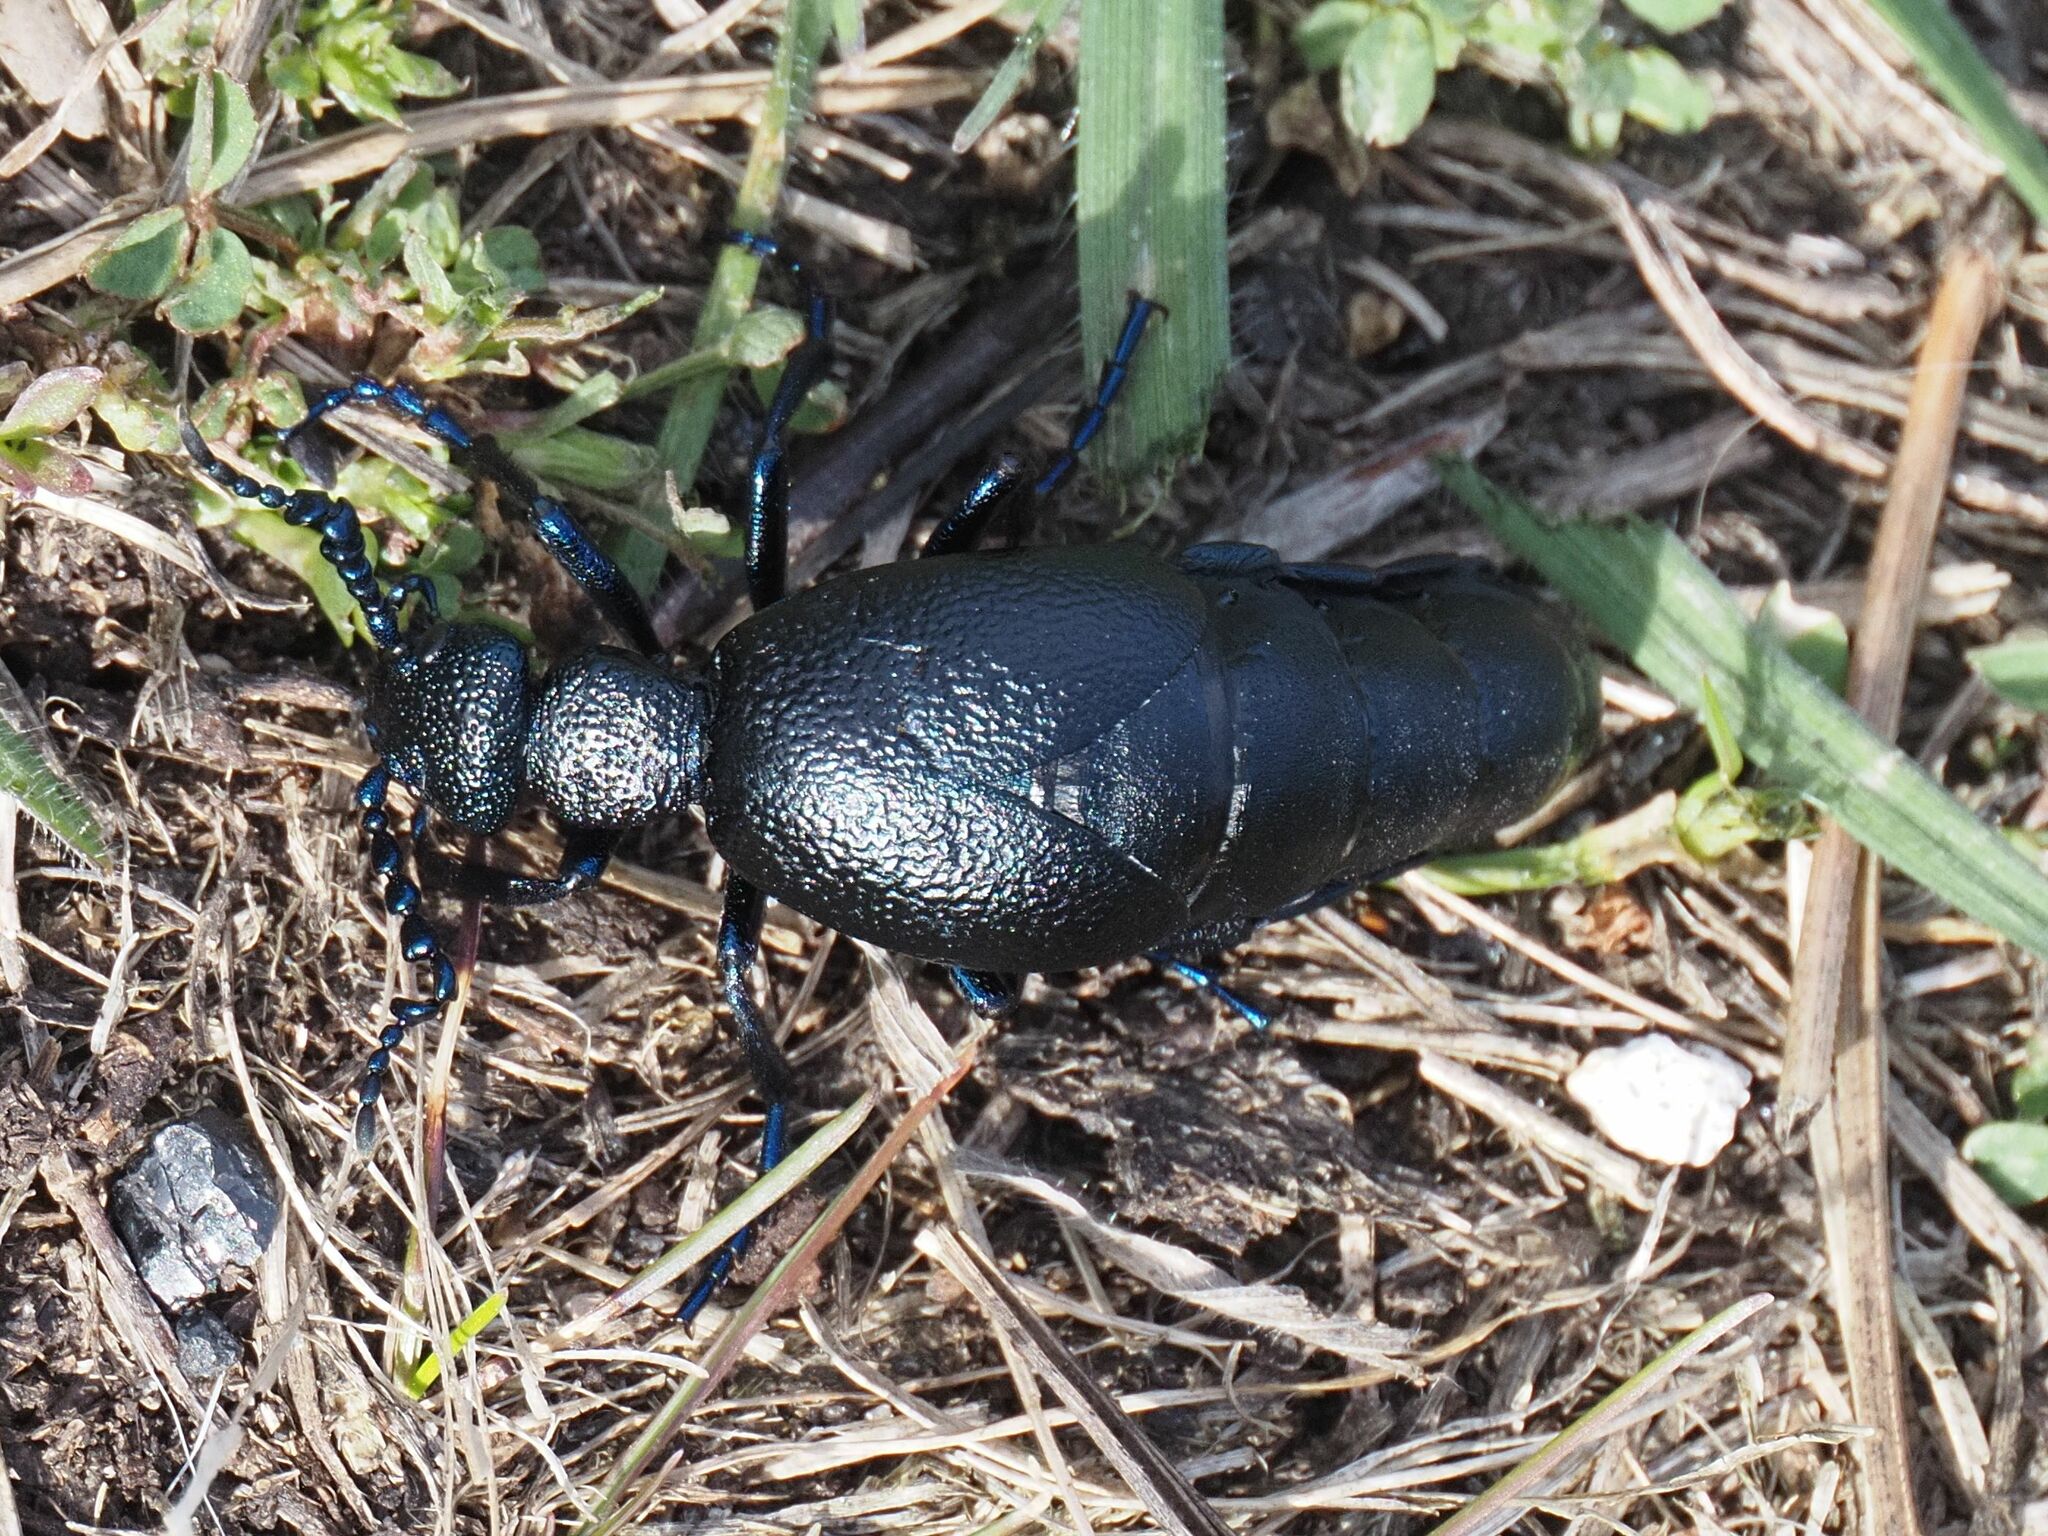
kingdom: Animalia
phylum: Arthropoda
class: Insecta
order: Coleoptera
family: Meloidae
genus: Meloe
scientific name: Meloe proscarabaeus
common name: Black oil-beetle
